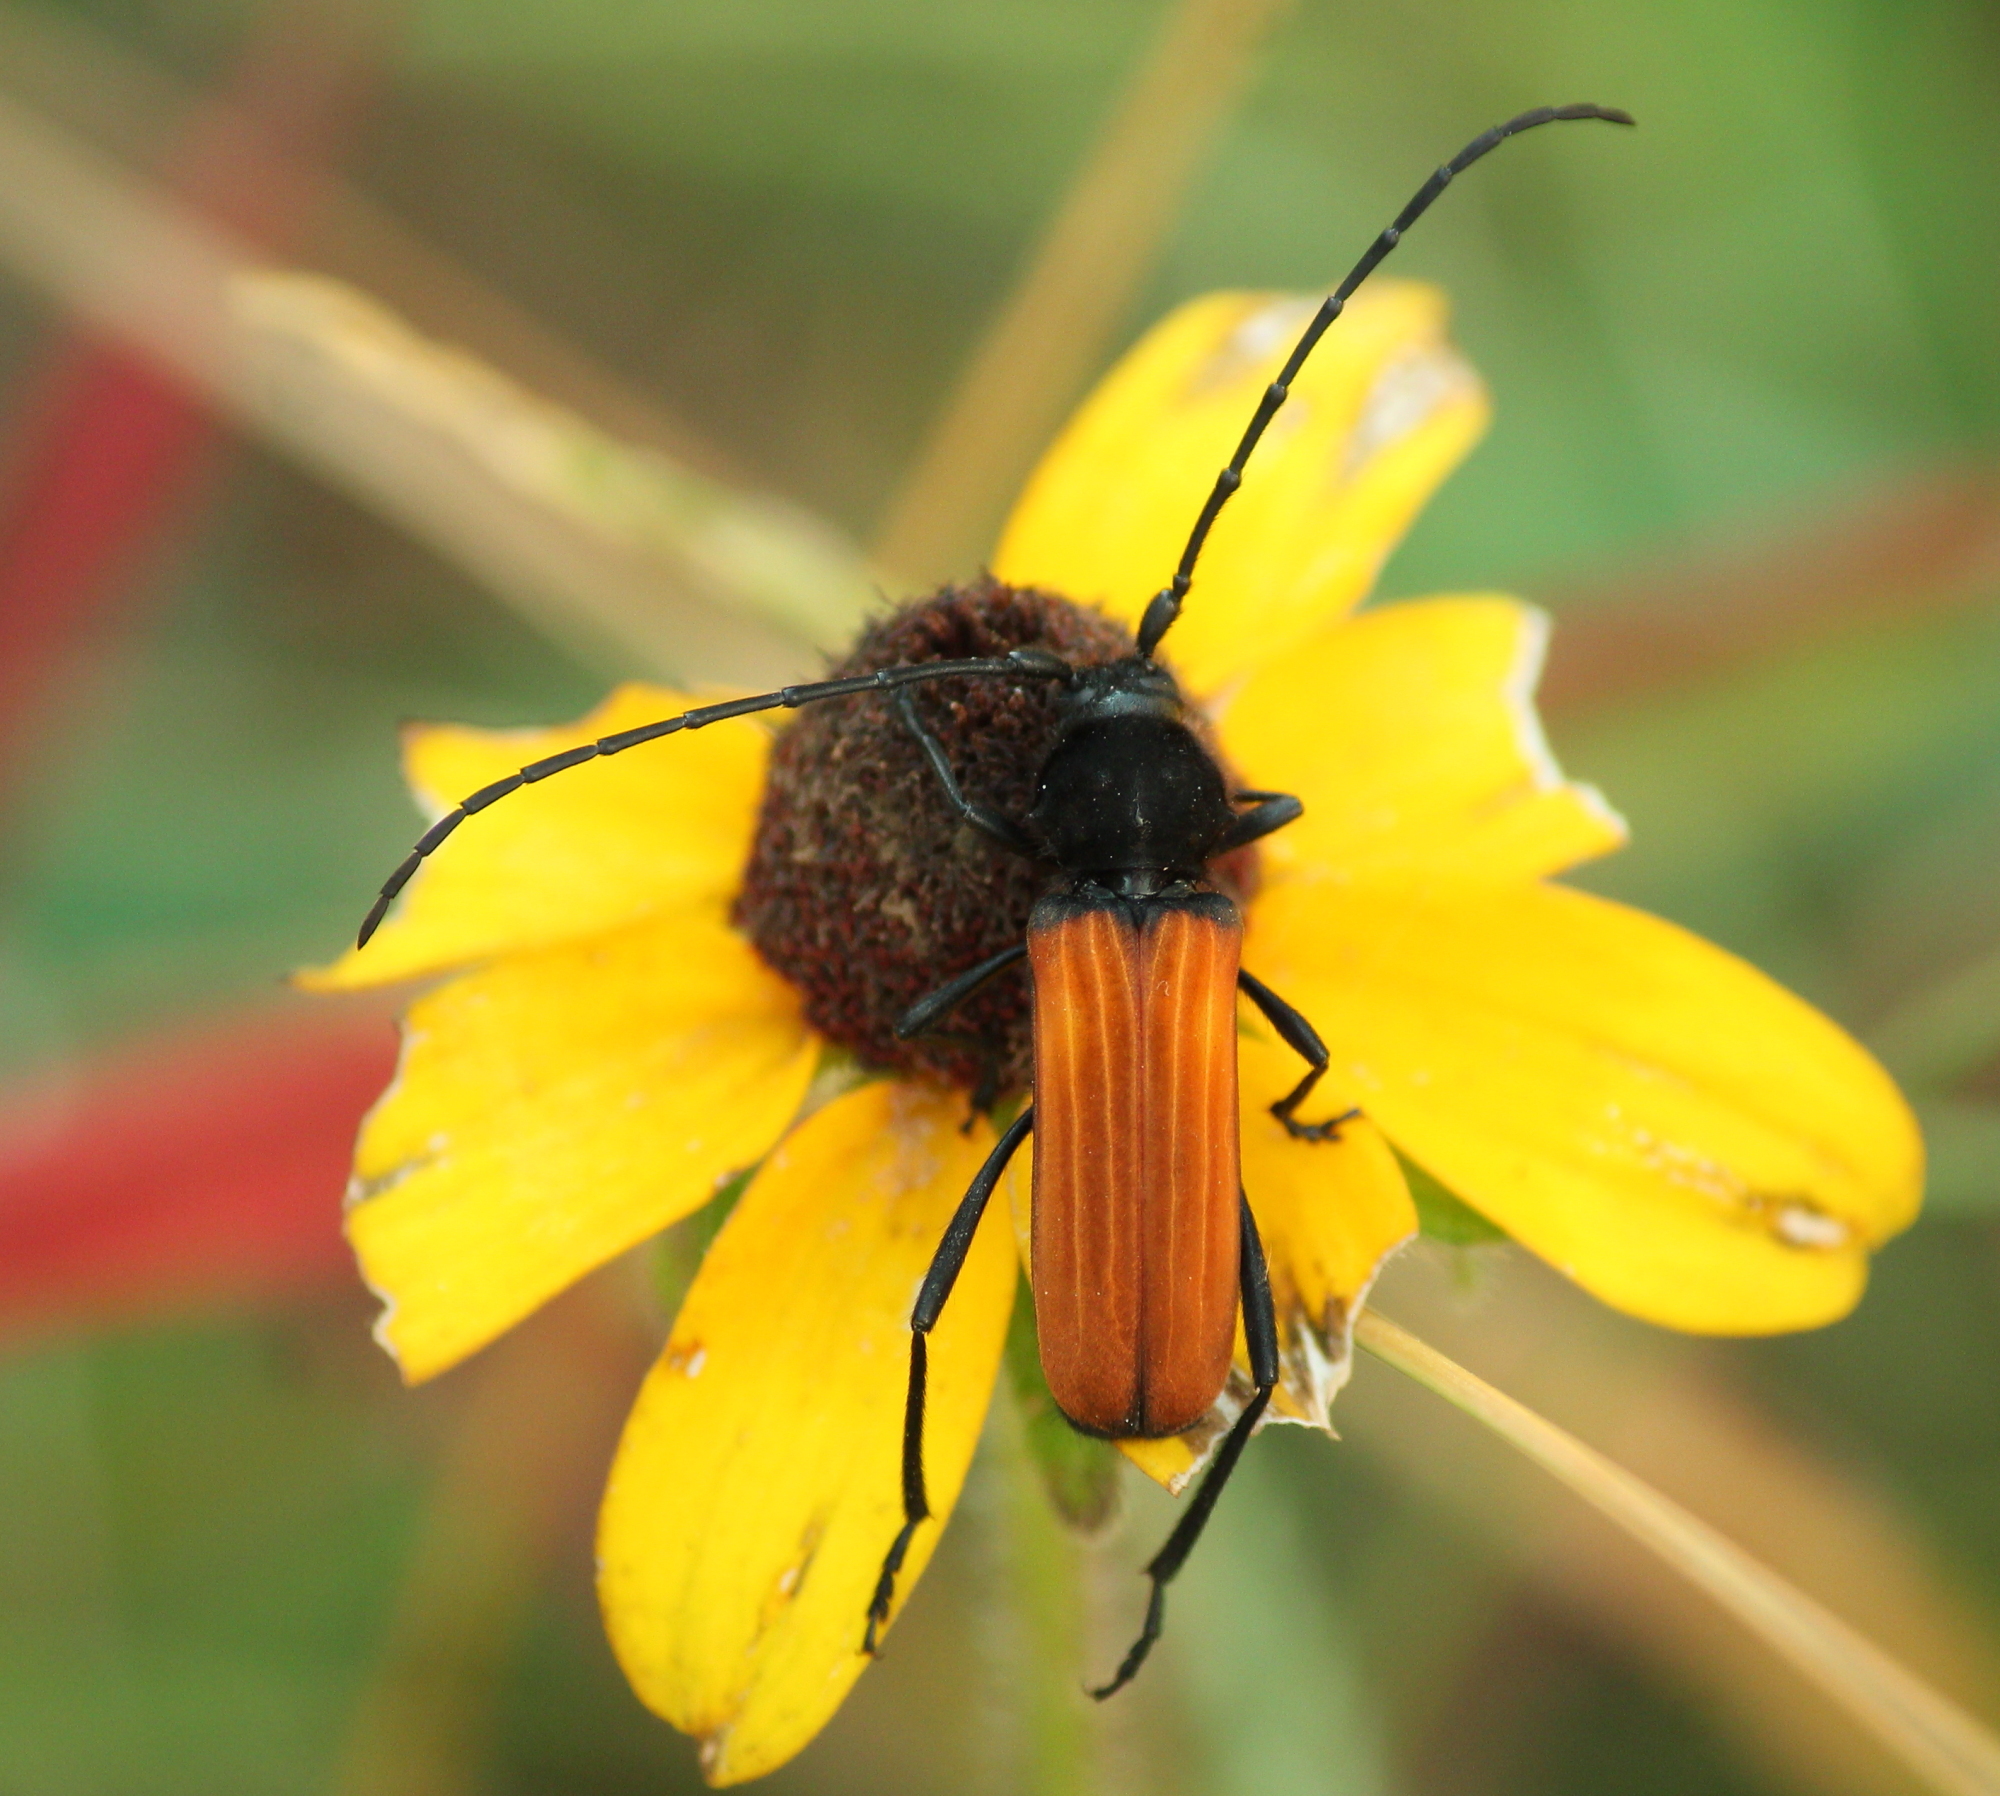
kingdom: Animalia
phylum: Arthropoda
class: Insecta
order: Coleoptera
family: Cerambycidae
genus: Tragidion
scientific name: Tragidion coquus
